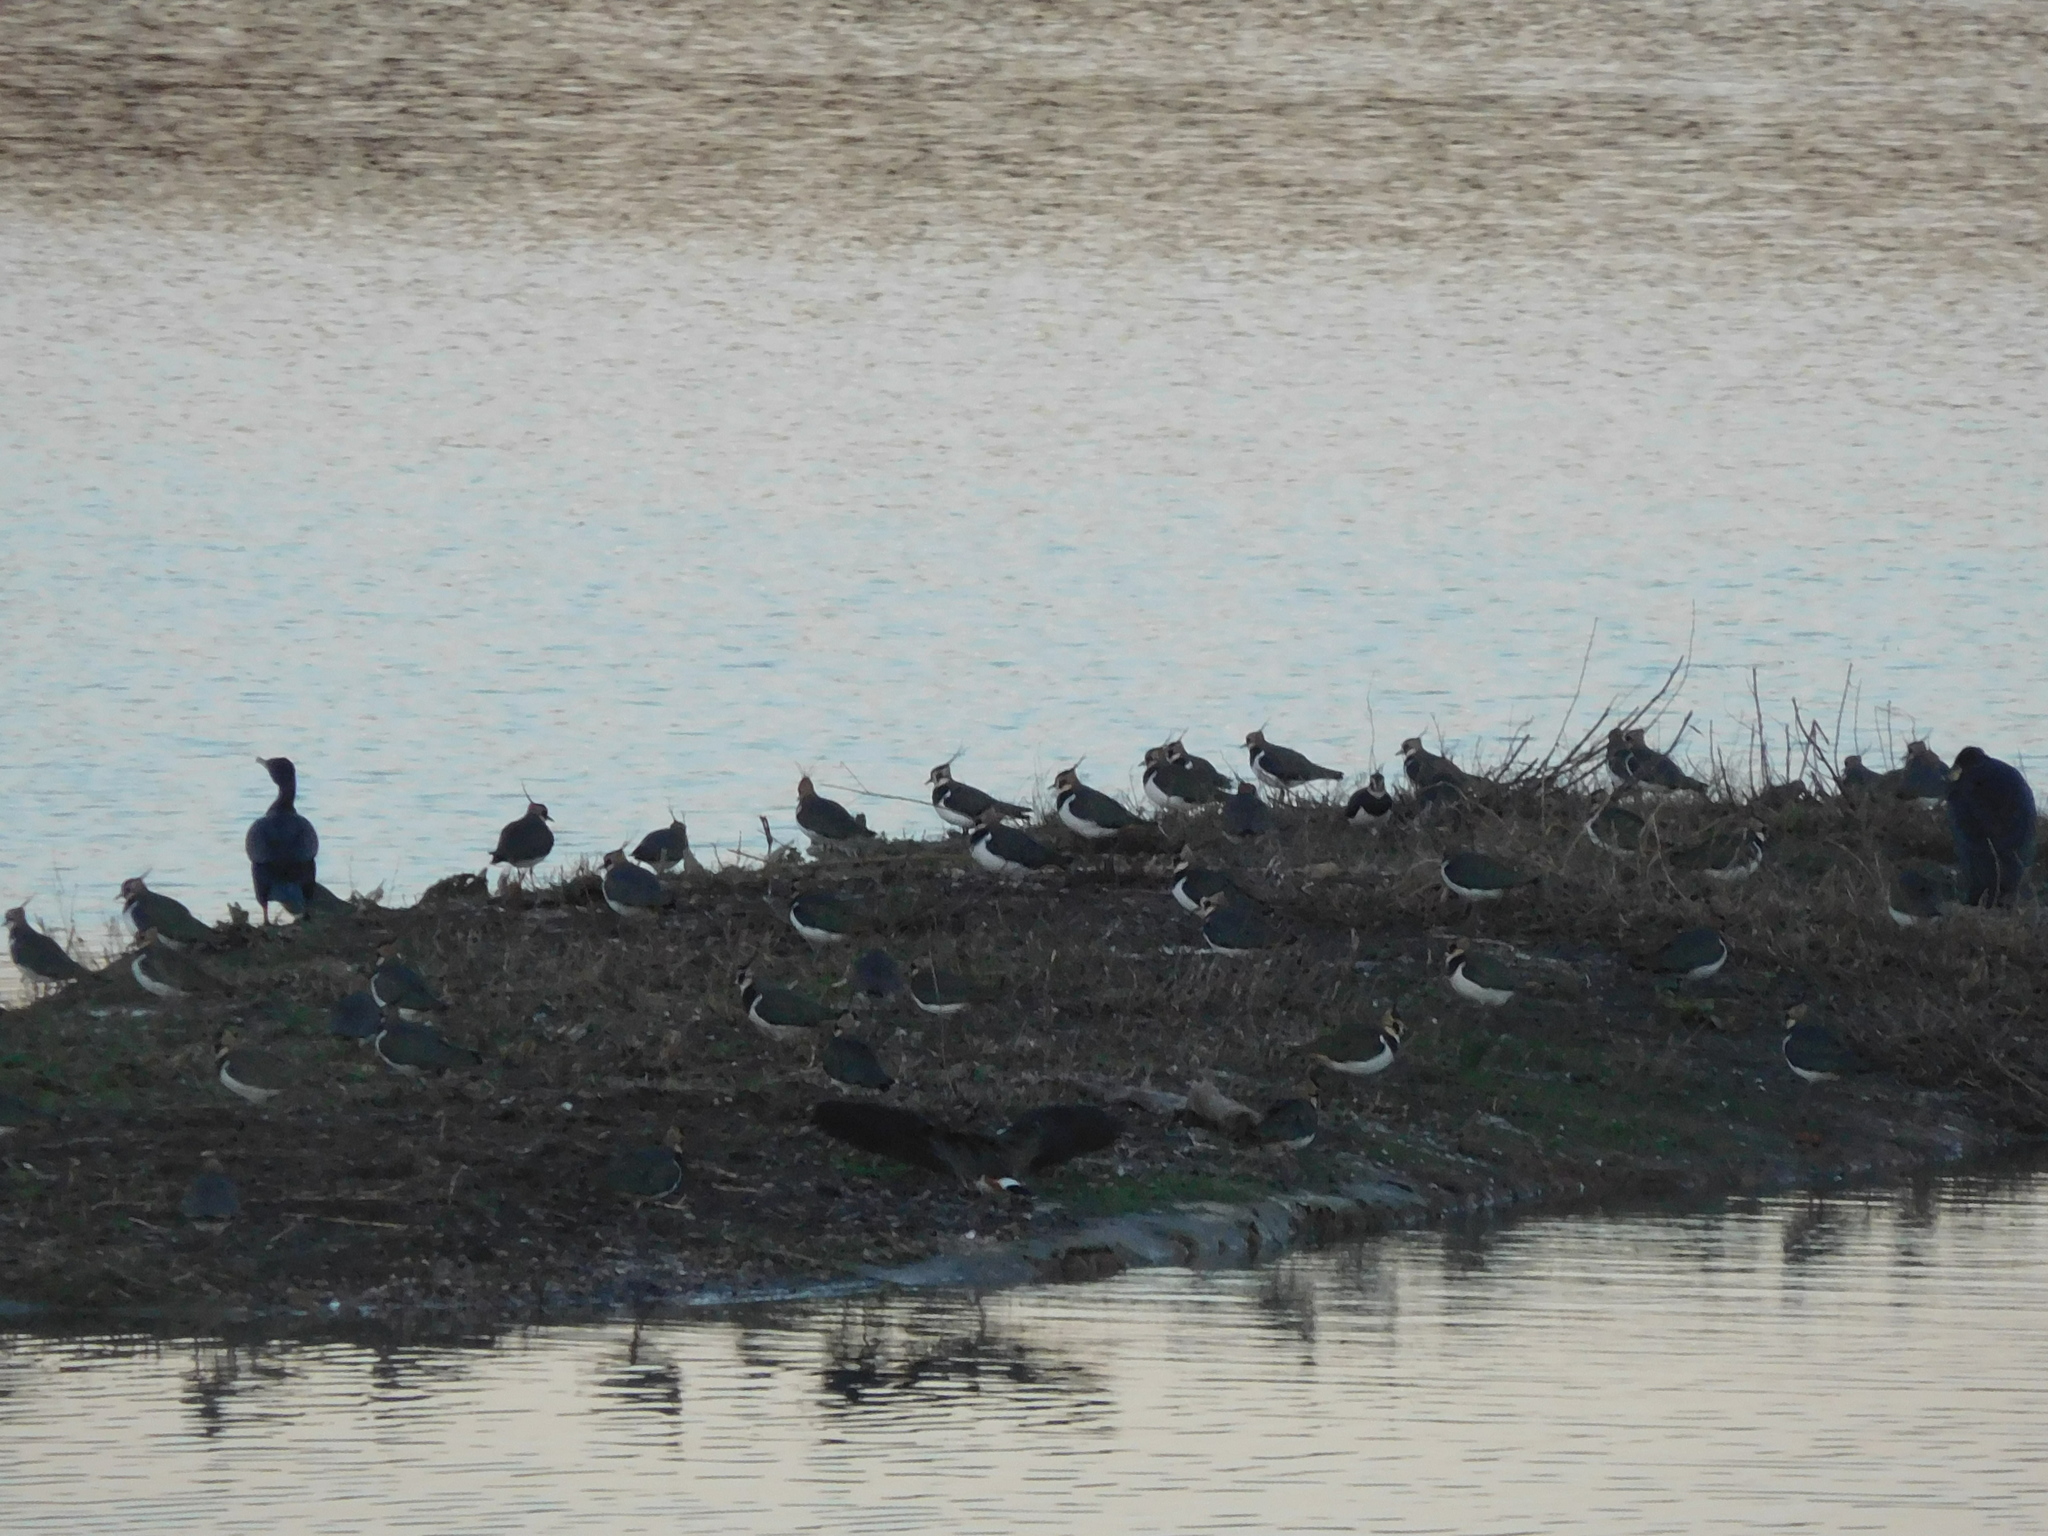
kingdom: Animalia
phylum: Chordata
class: Aves
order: Charadriiformes
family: Charadriidae
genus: Vanellus
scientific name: Vanellus vanellus
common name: Northern lapwing
